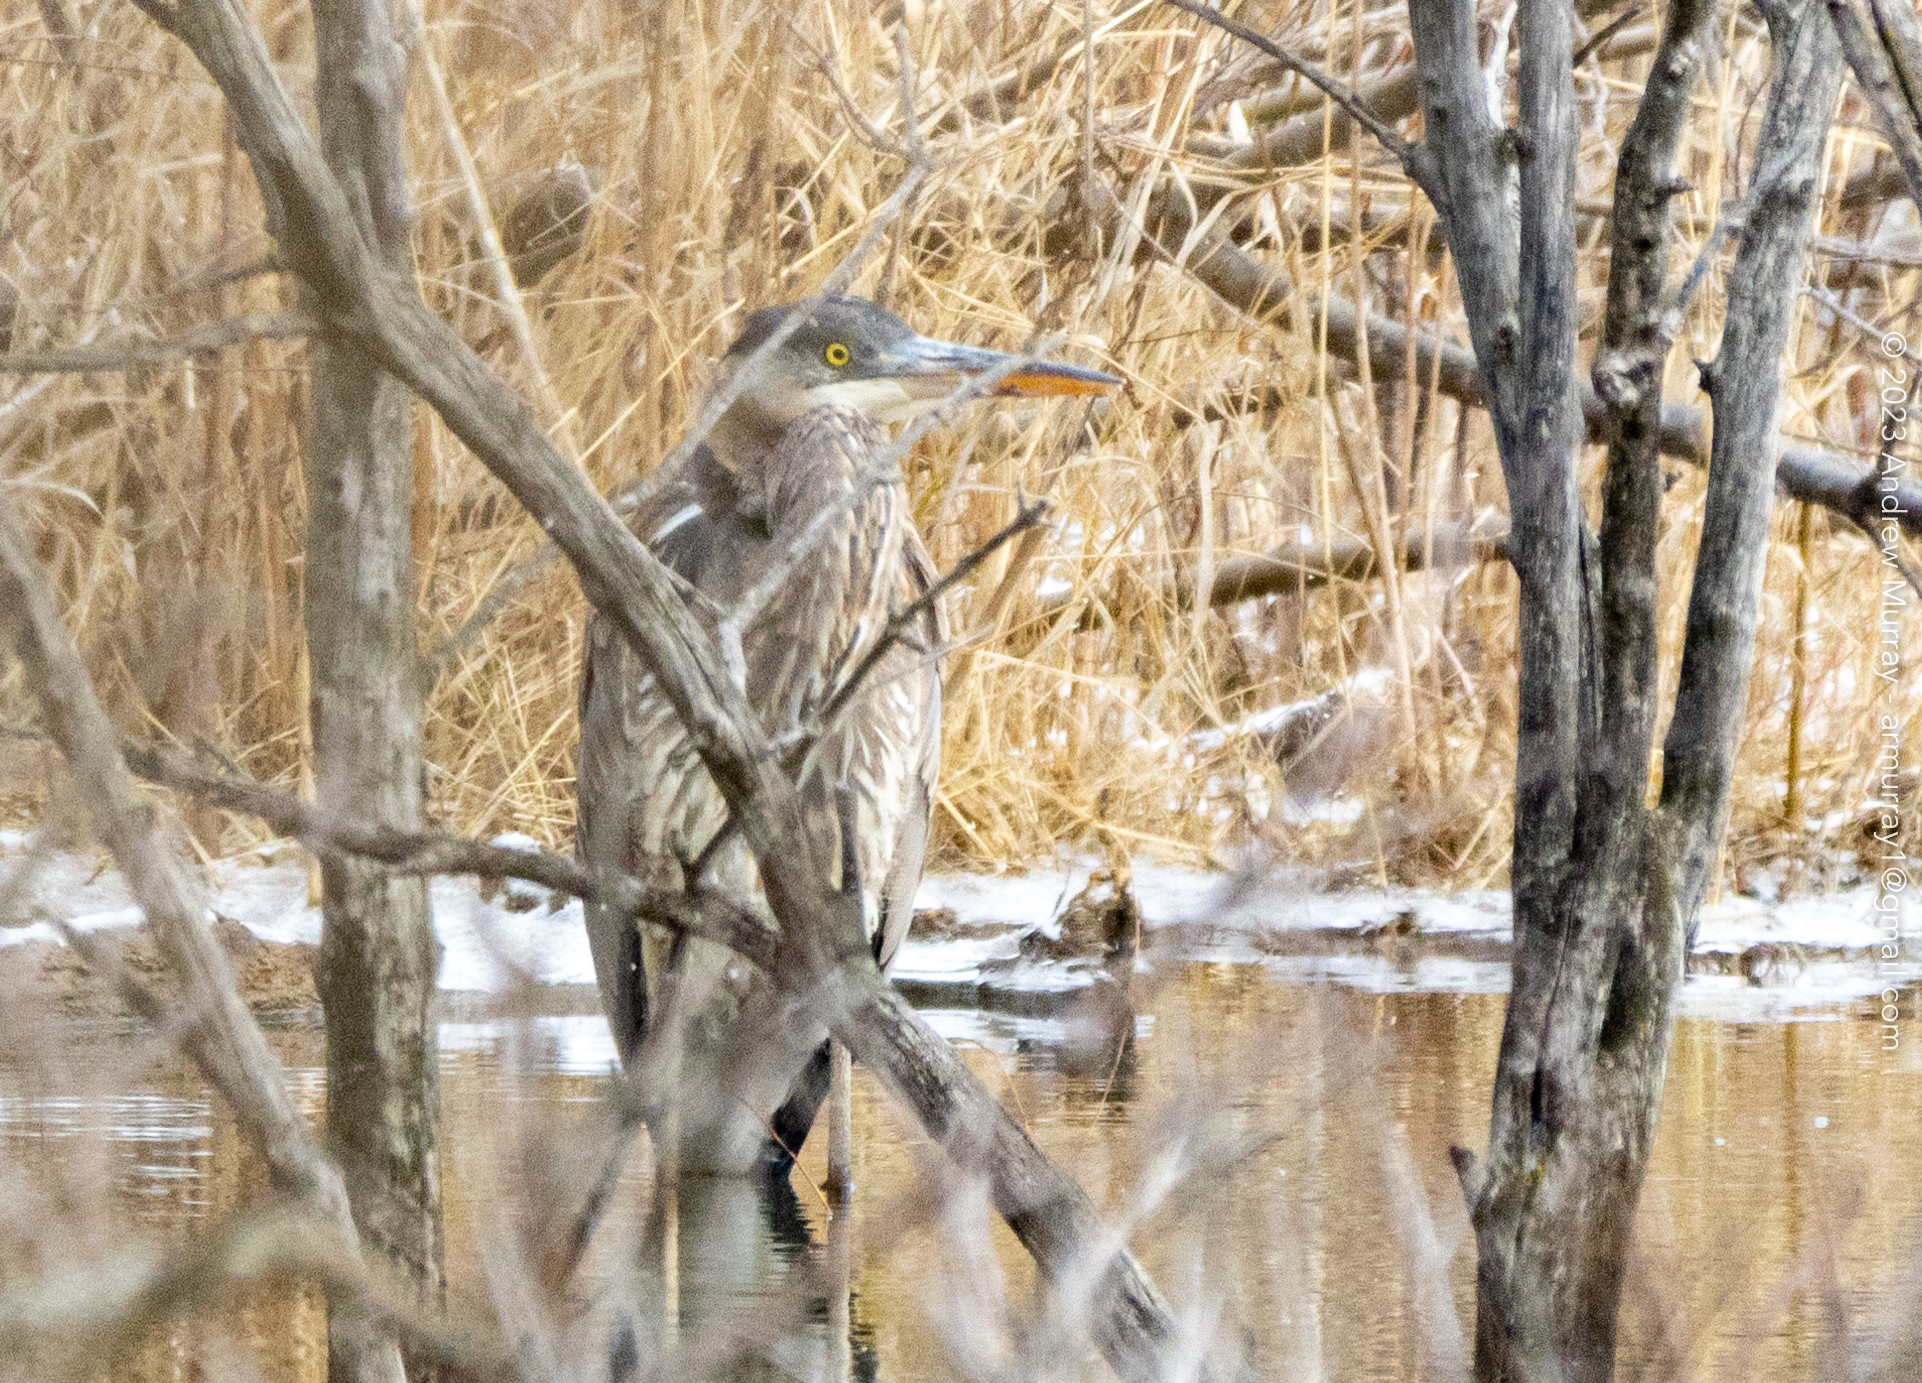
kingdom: Animalia
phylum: Chordata
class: Aves
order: Pelecaniformes
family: Ardeidae
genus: Ardea
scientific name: Ardea herodias
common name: Great blue heron
